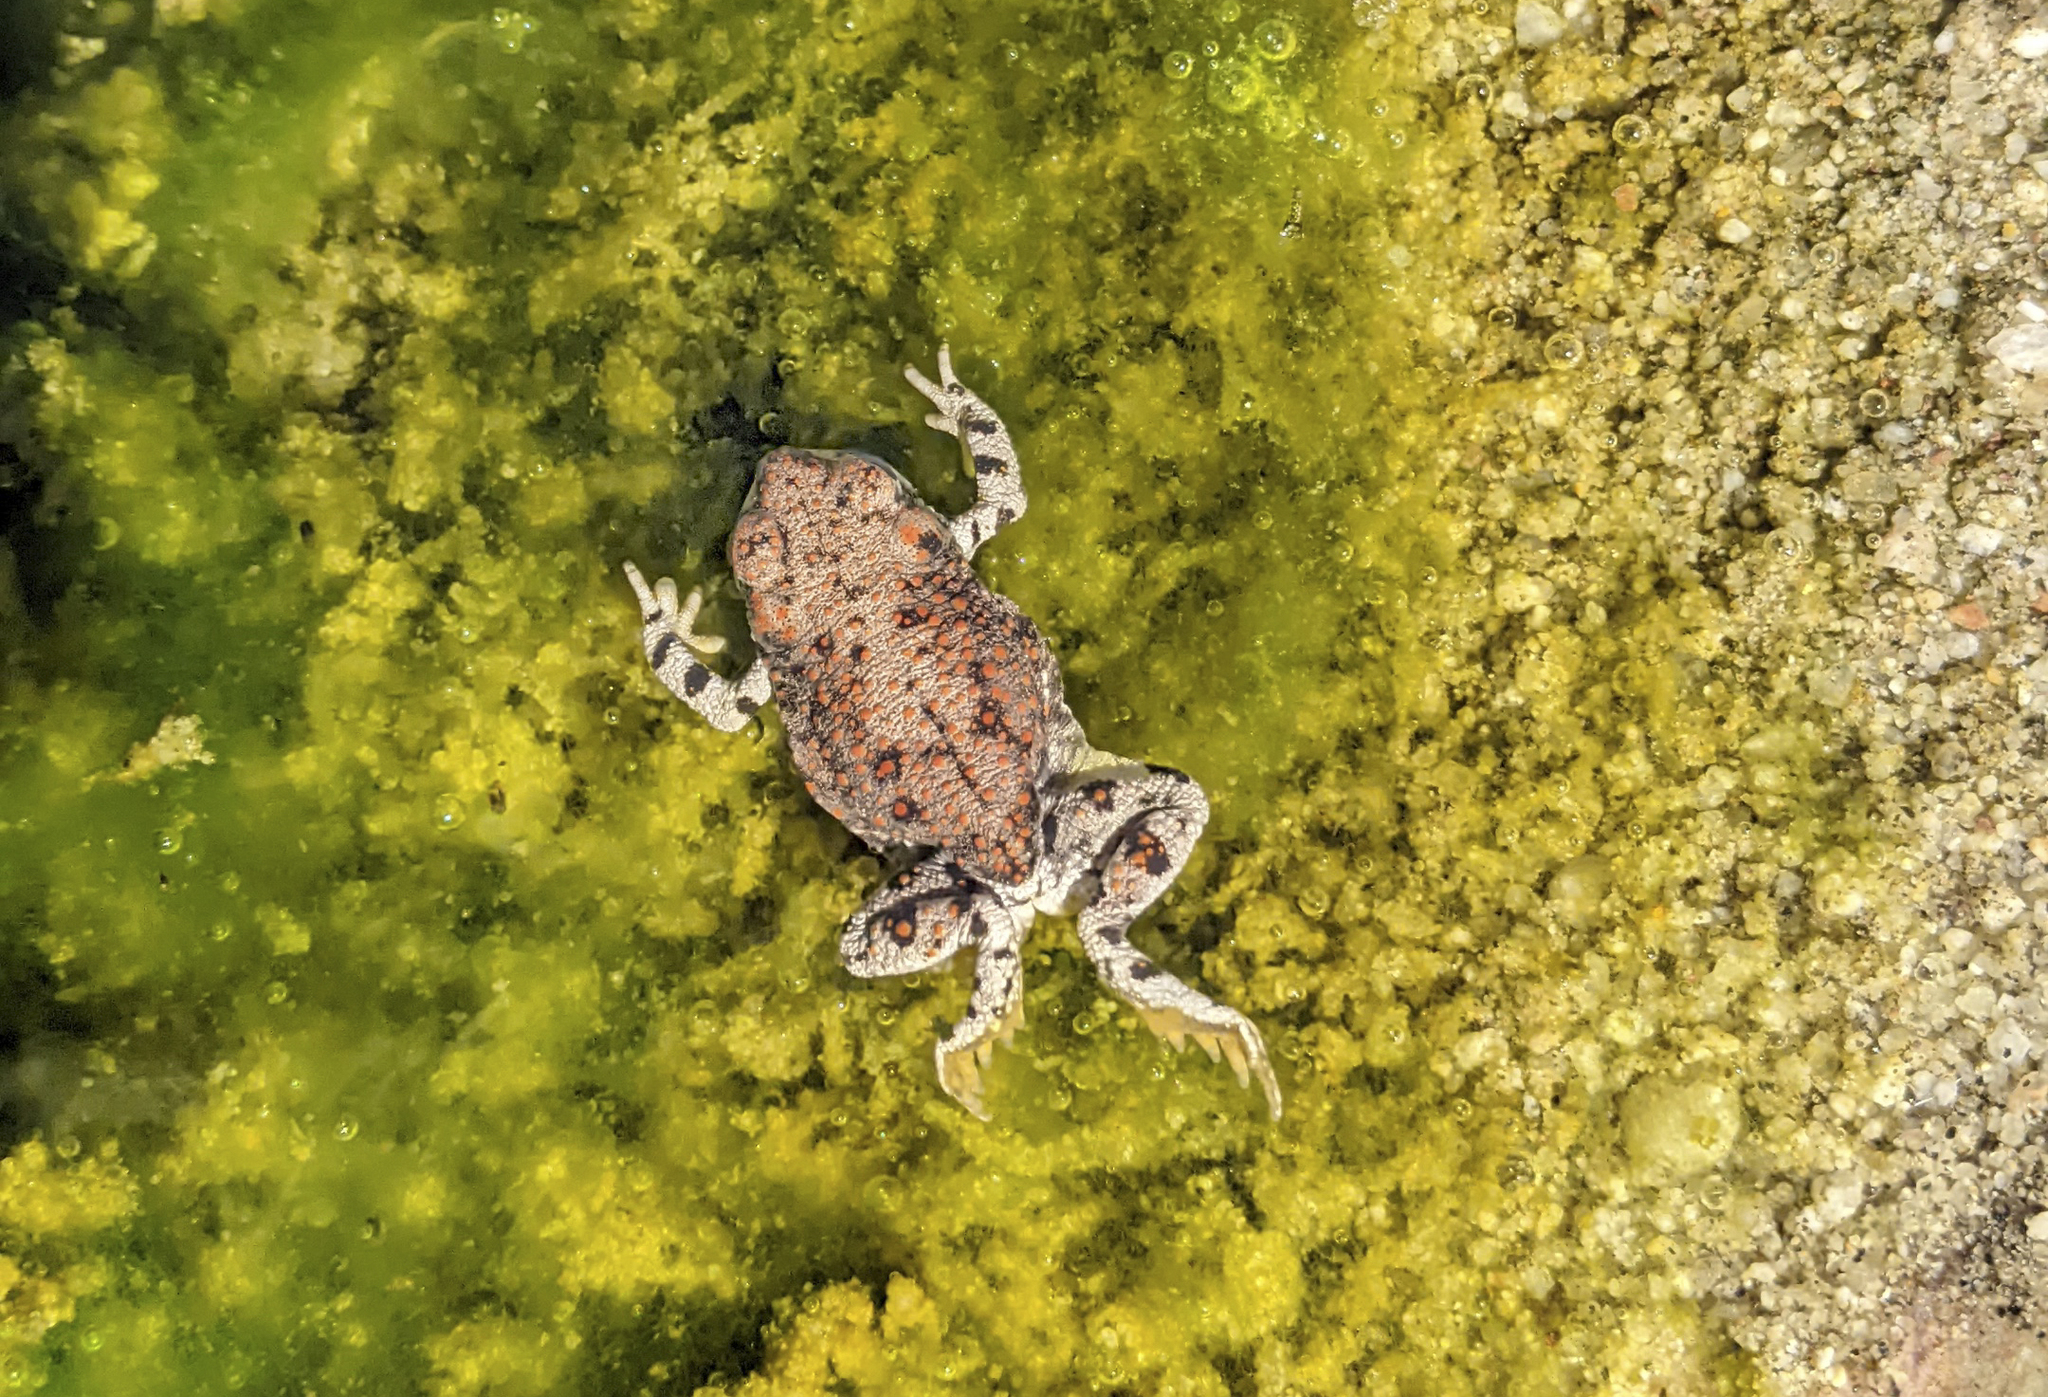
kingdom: Animalia
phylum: Chordata
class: Amphibia
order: Anura
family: Bufonidae
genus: Anaxyrus
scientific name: Anaxyrus punctatus
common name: Red-spotted toad
